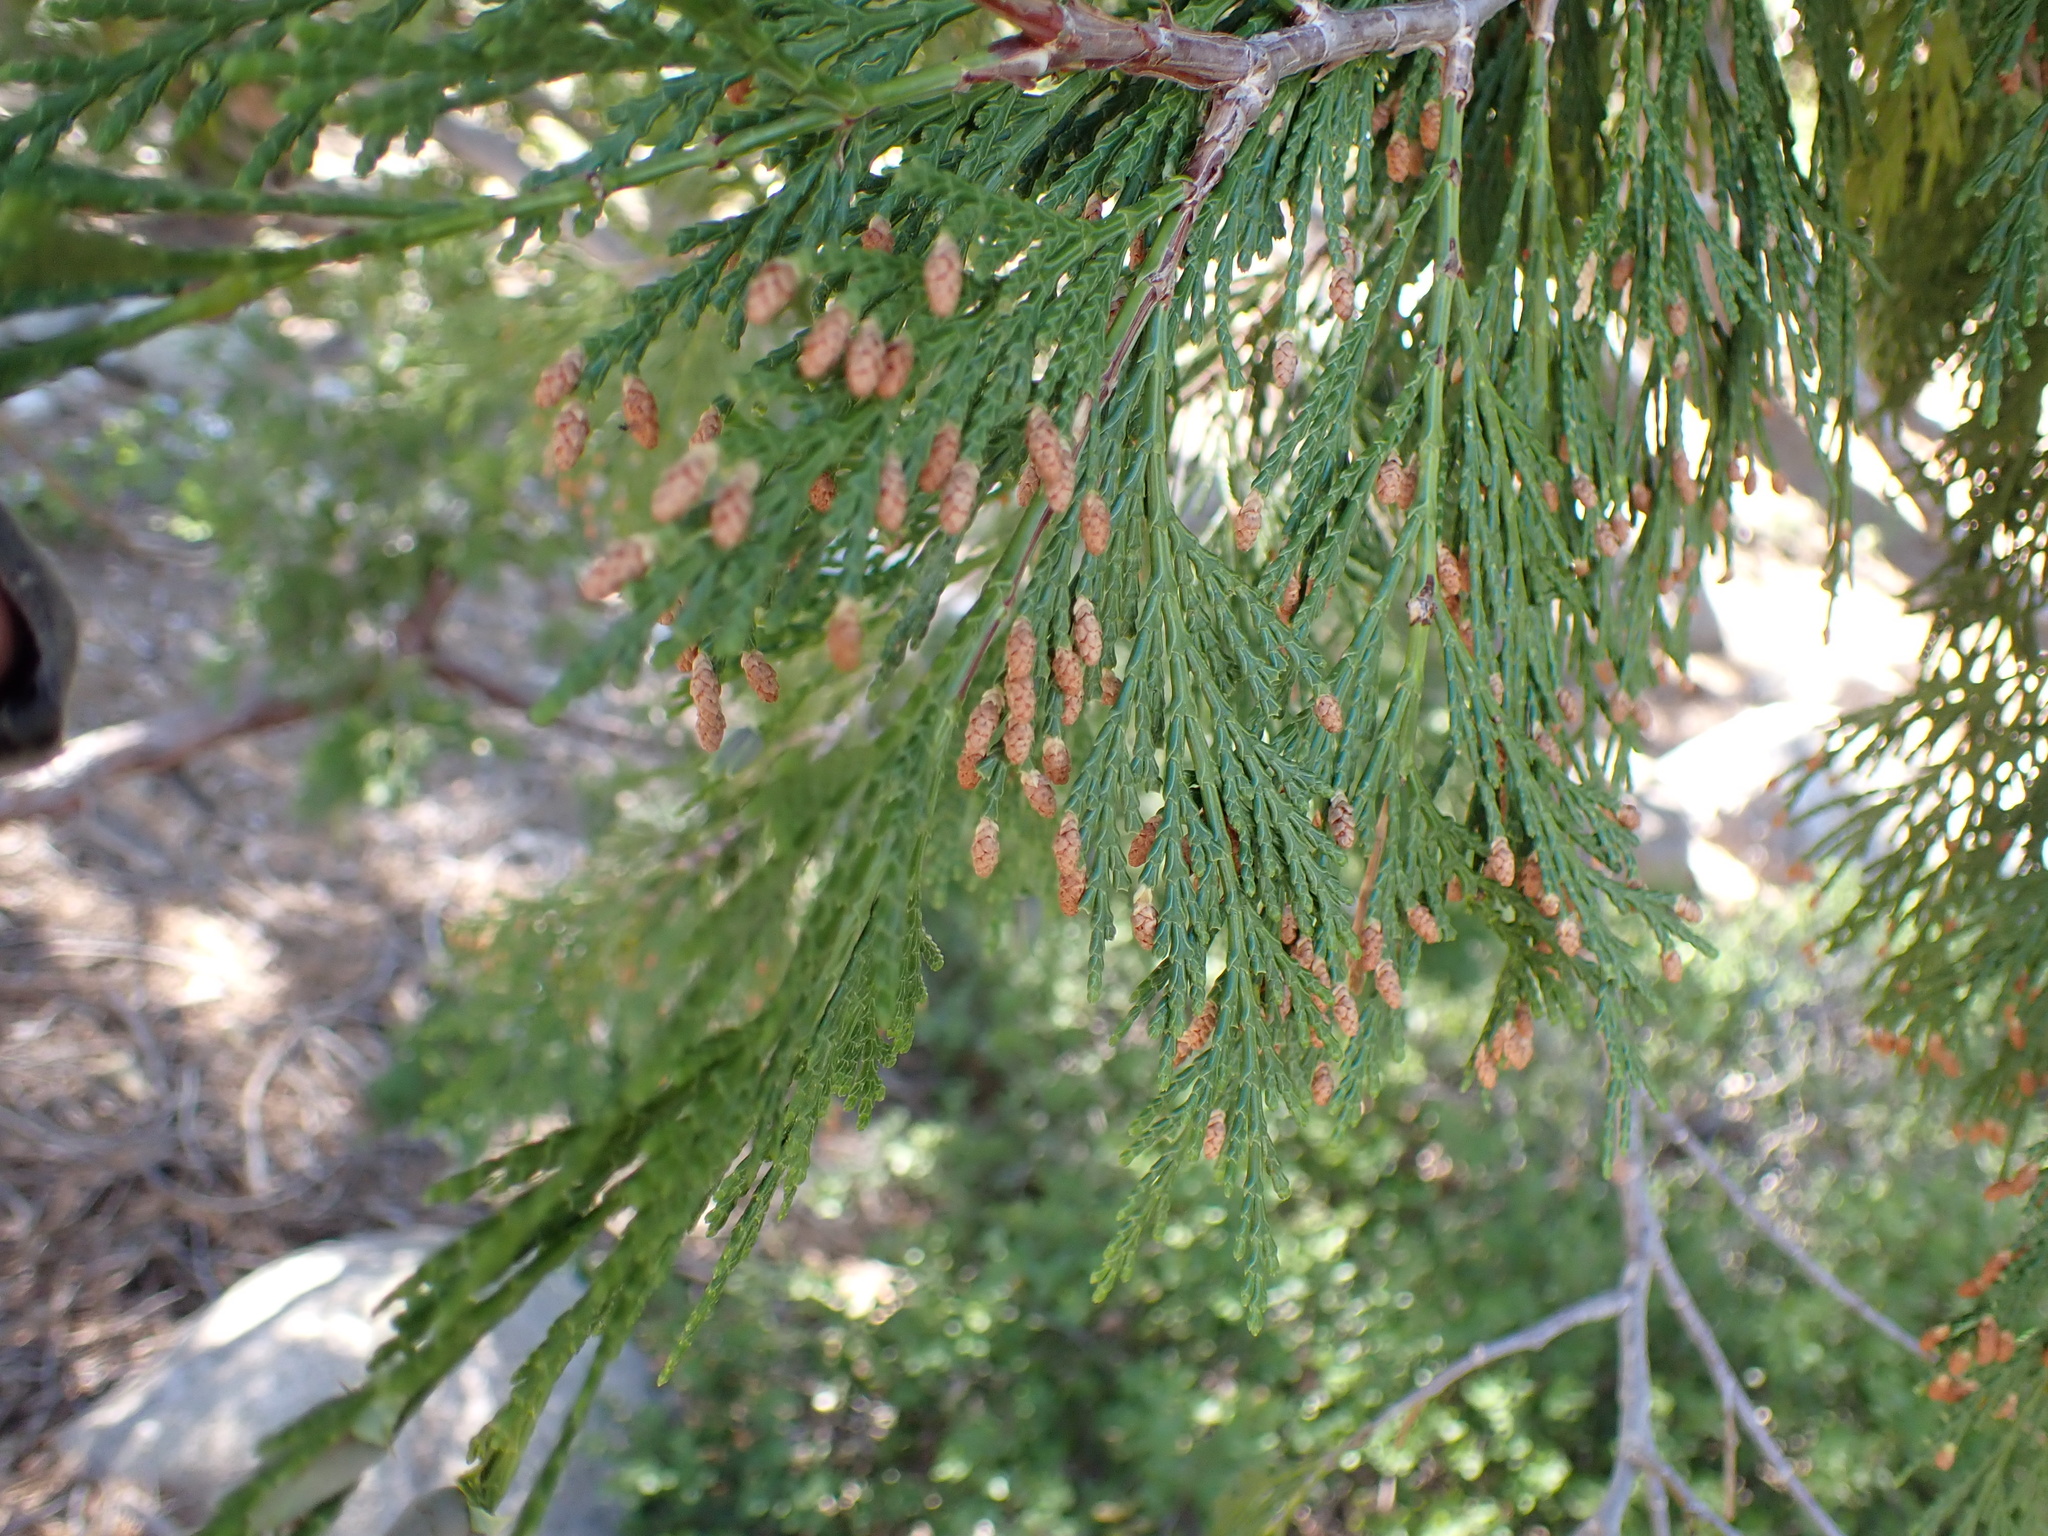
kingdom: Plantae
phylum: Tracheophyta
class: Pinopsida
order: Pinales
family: Cupressaceae
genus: Calocedrus
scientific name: Calocedrus decurrens
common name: Californian incense-cedar
